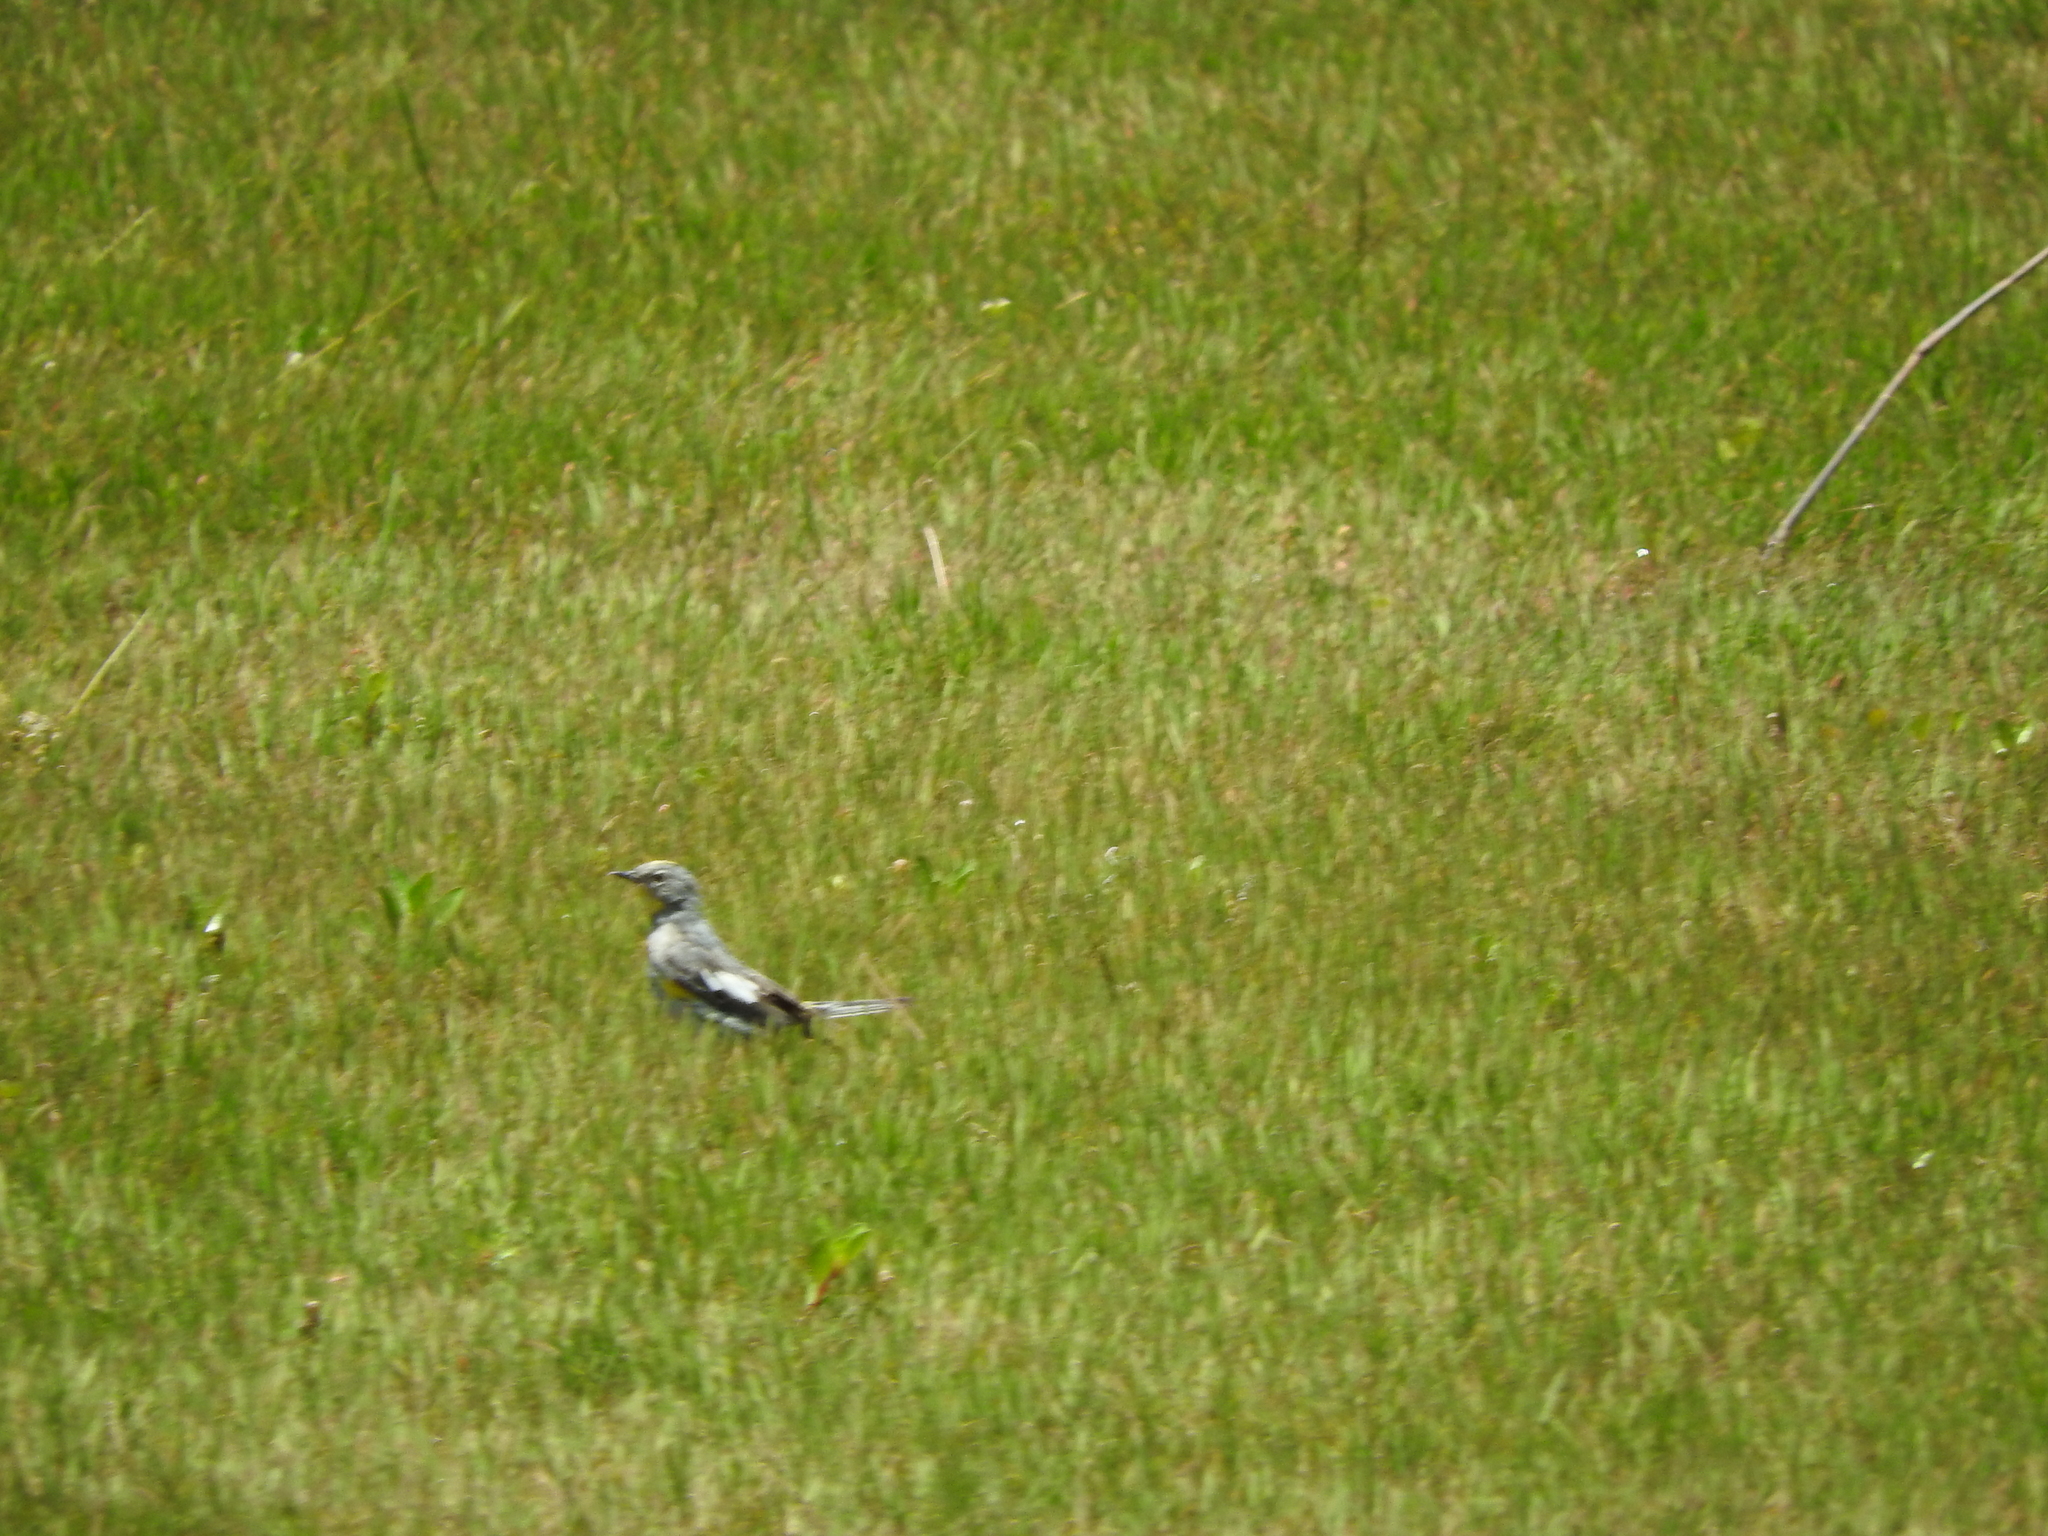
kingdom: Animalia
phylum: Chordata
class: Aves
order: Passeriformes
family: Parulidae
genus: Setophaga
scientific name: Setophaga coronata
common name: Myrtle warbler
